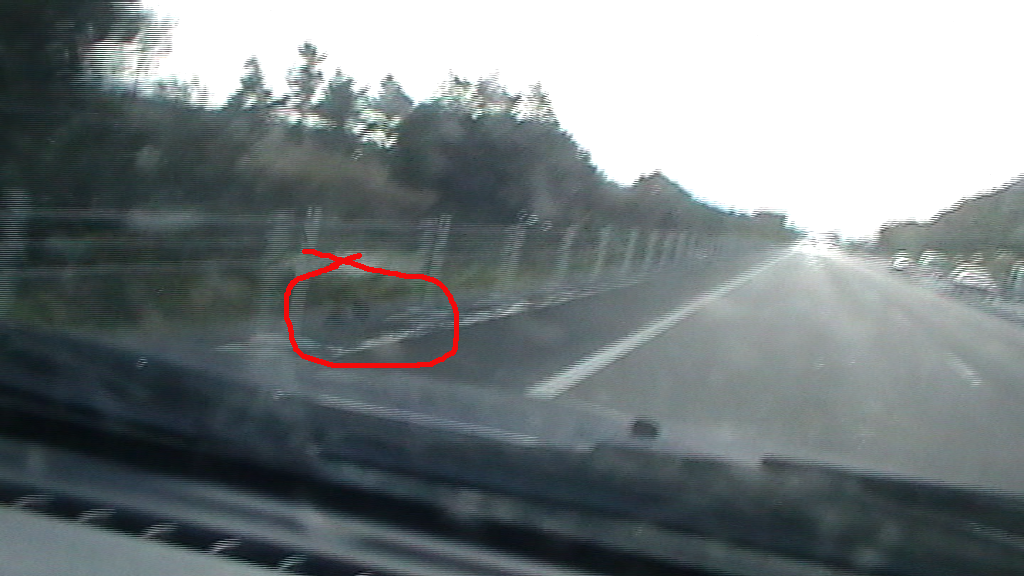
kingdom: Animalia
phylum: Chordata
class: Aves
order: Gruiformes
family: Rallidae
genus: Porphyrio
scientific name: Porphyrio melanotus
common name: Australasian swamphen
